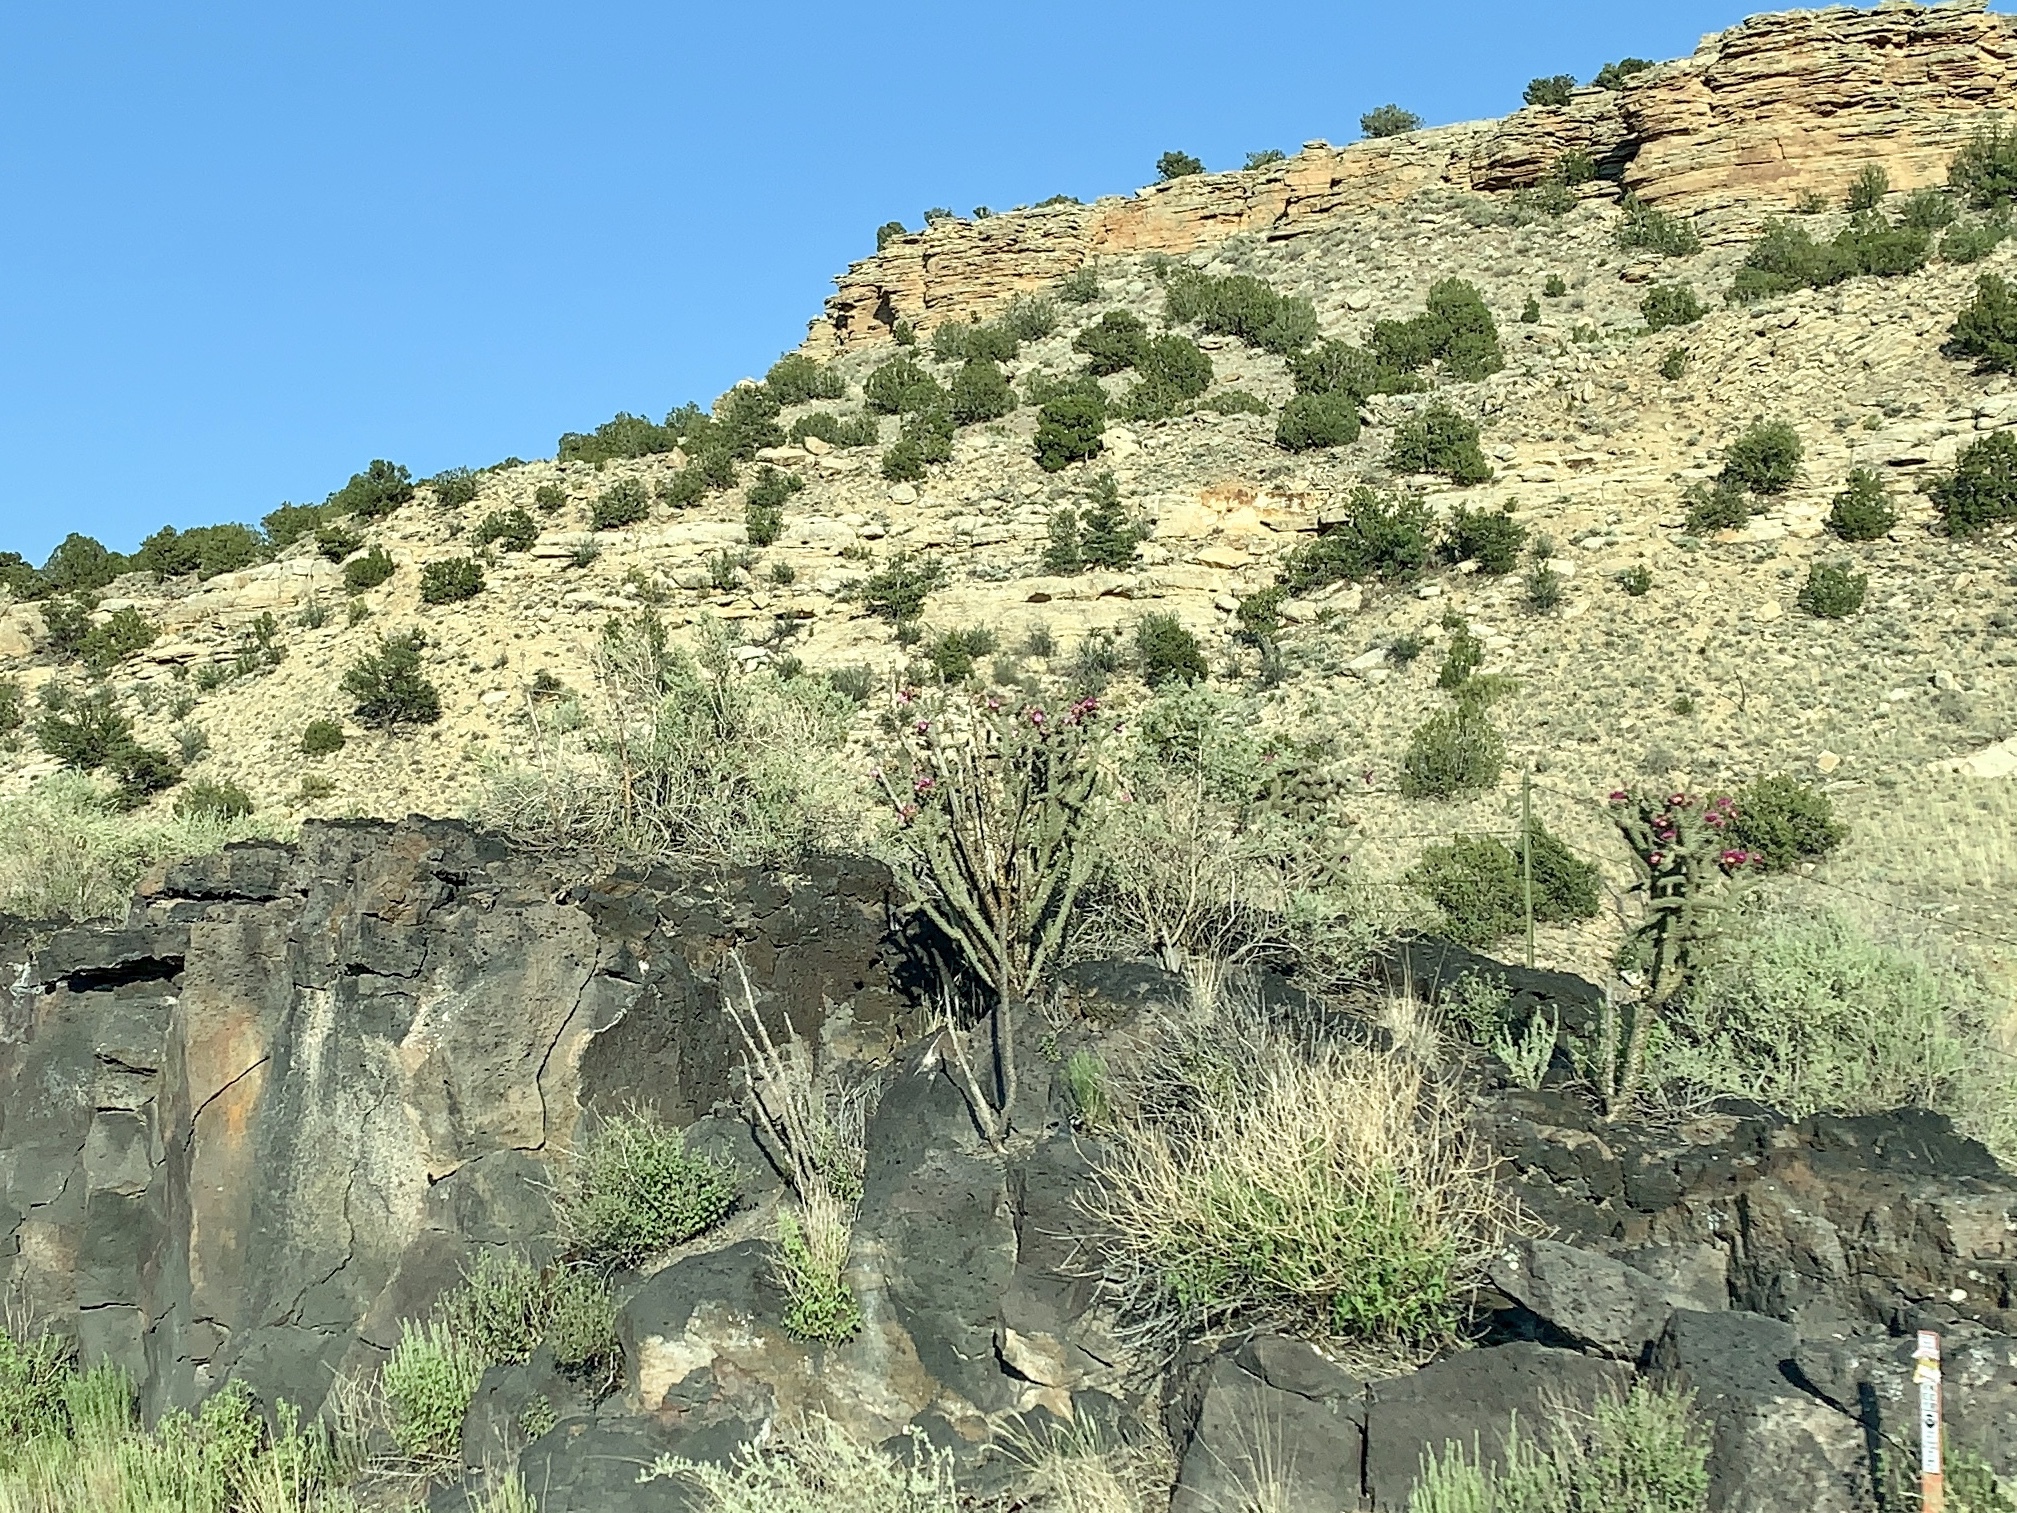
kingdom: Plantae
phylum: Tracheophyta
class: Magnoliopsida
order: Caryophyllales
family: Cactaceae
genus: Cylindropuntia
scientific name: Cylindropuntia imbricata
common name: Candelabrum cactus
